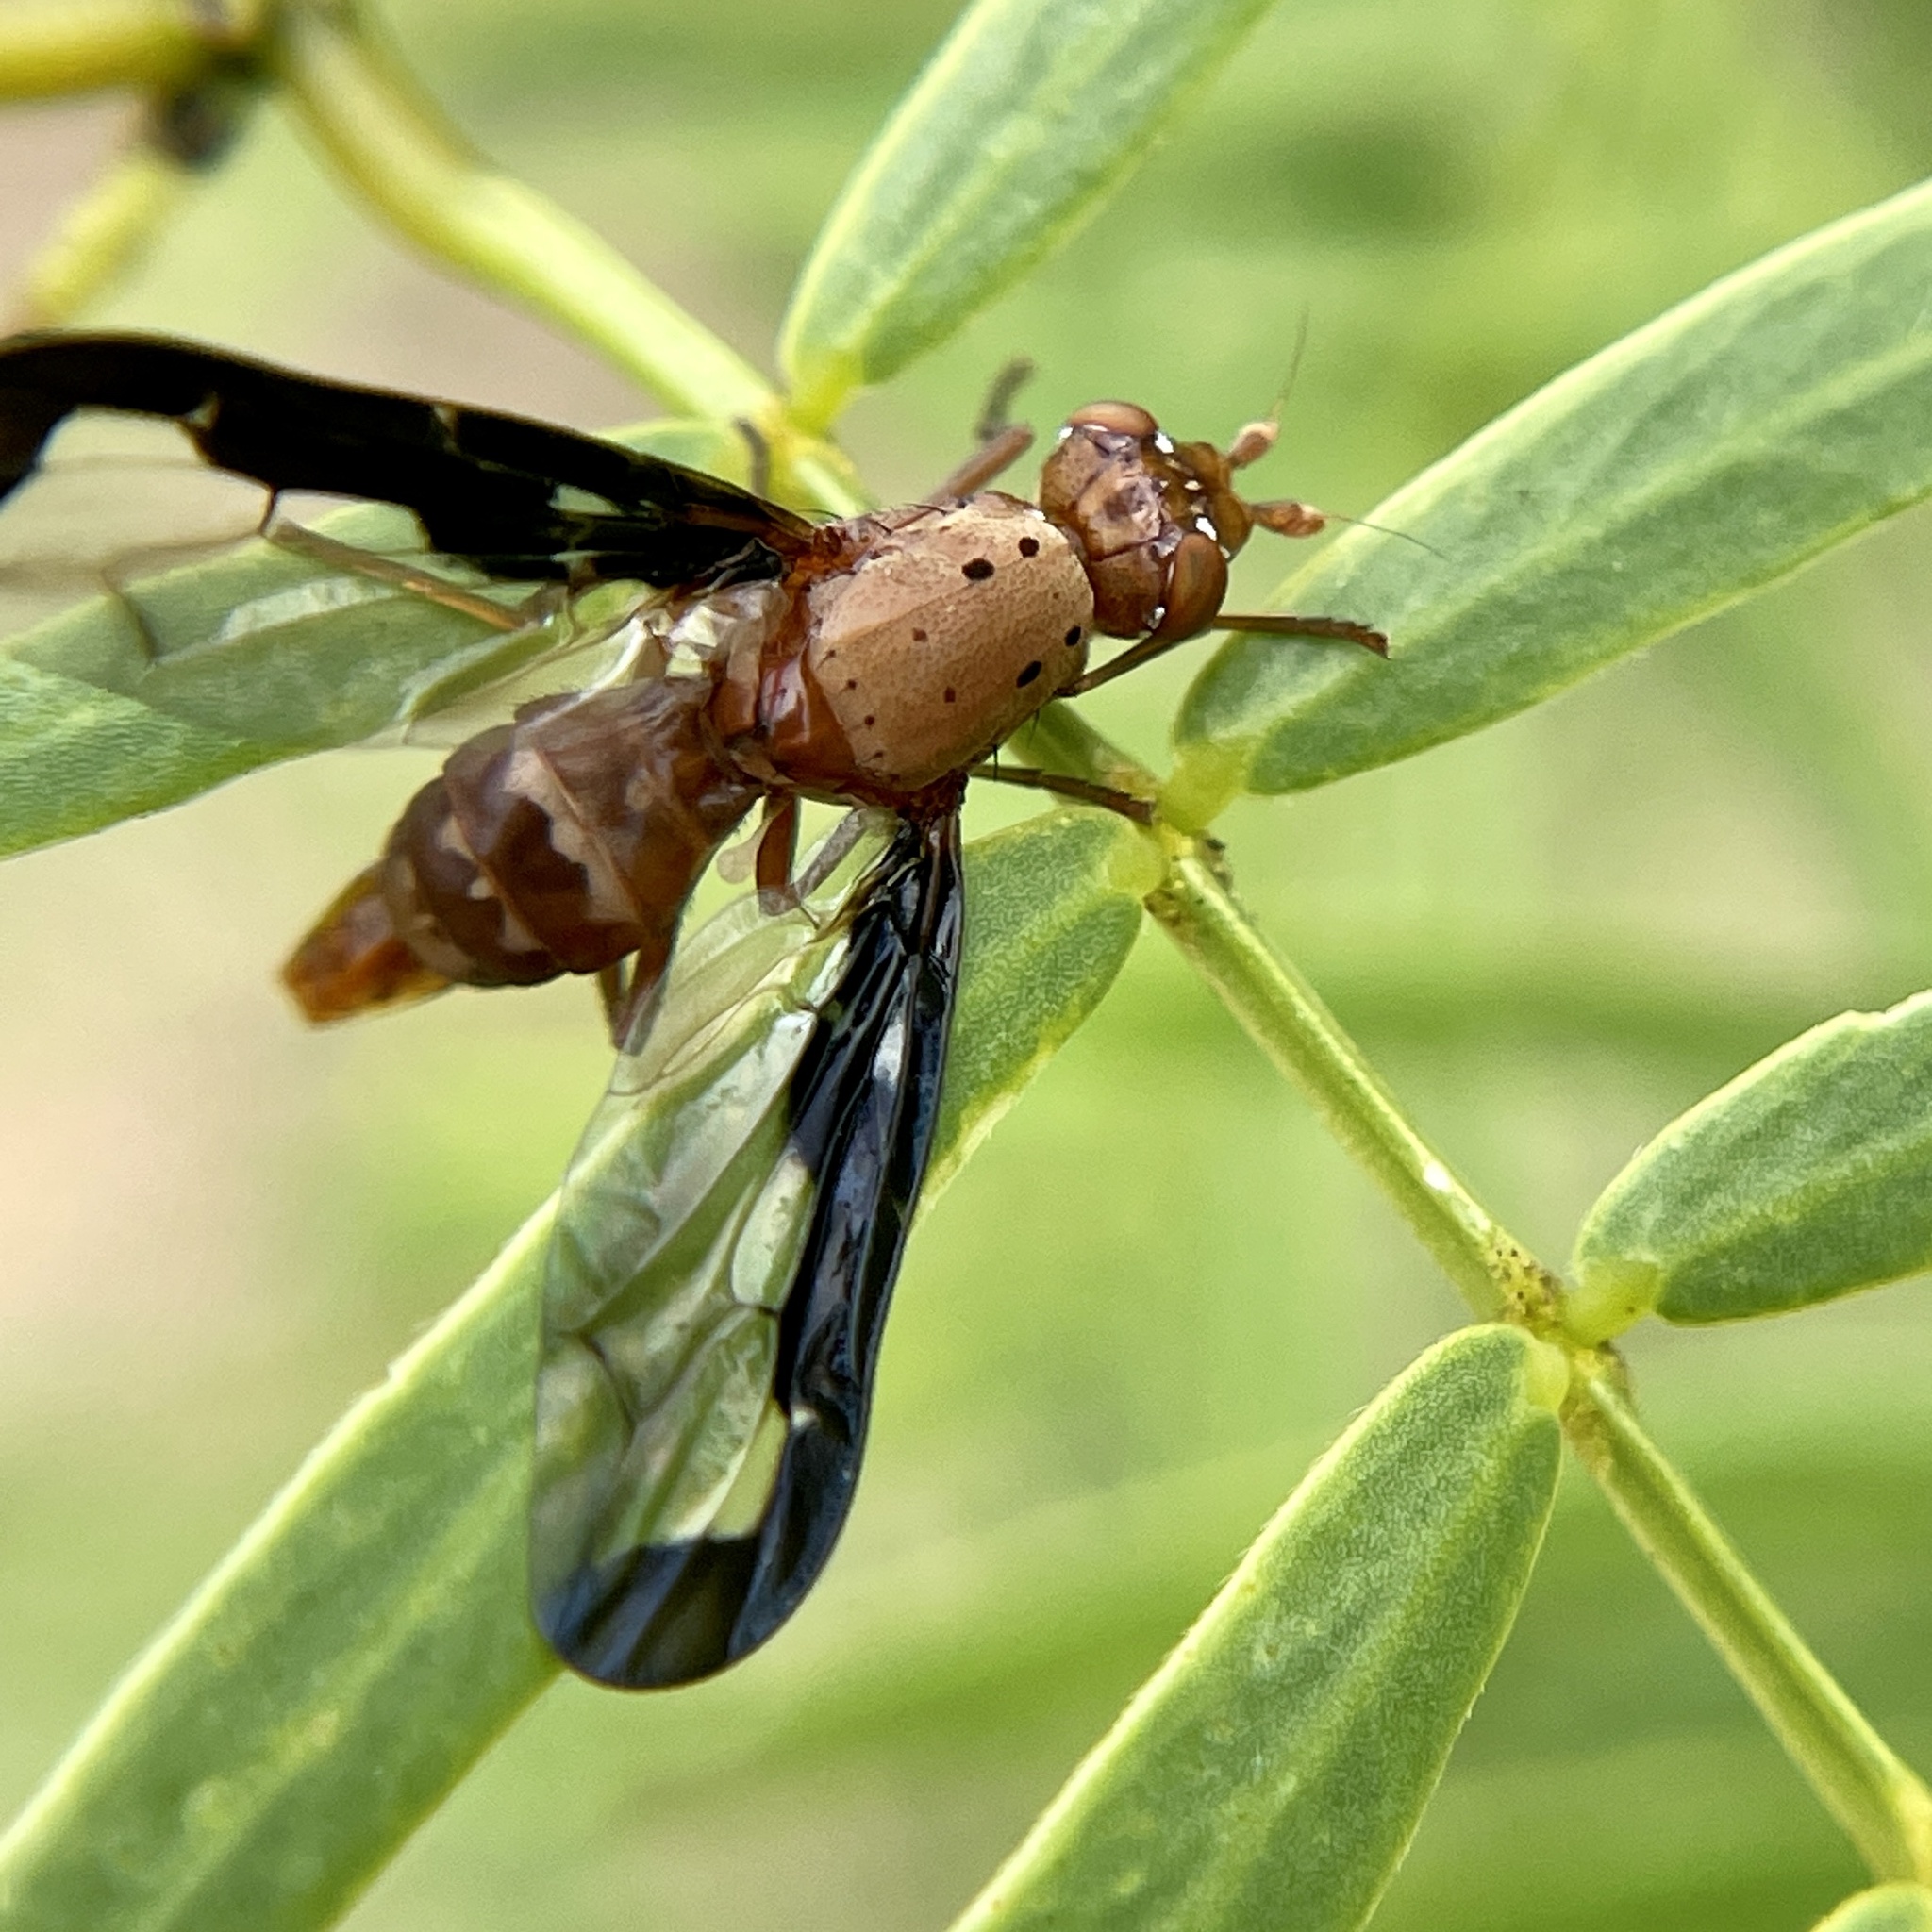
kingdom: Animalia
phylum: Arthropoda
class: Insecta
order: Diptera
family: Ulidiidae
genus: Diacrita
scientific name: Diacrita costalis
